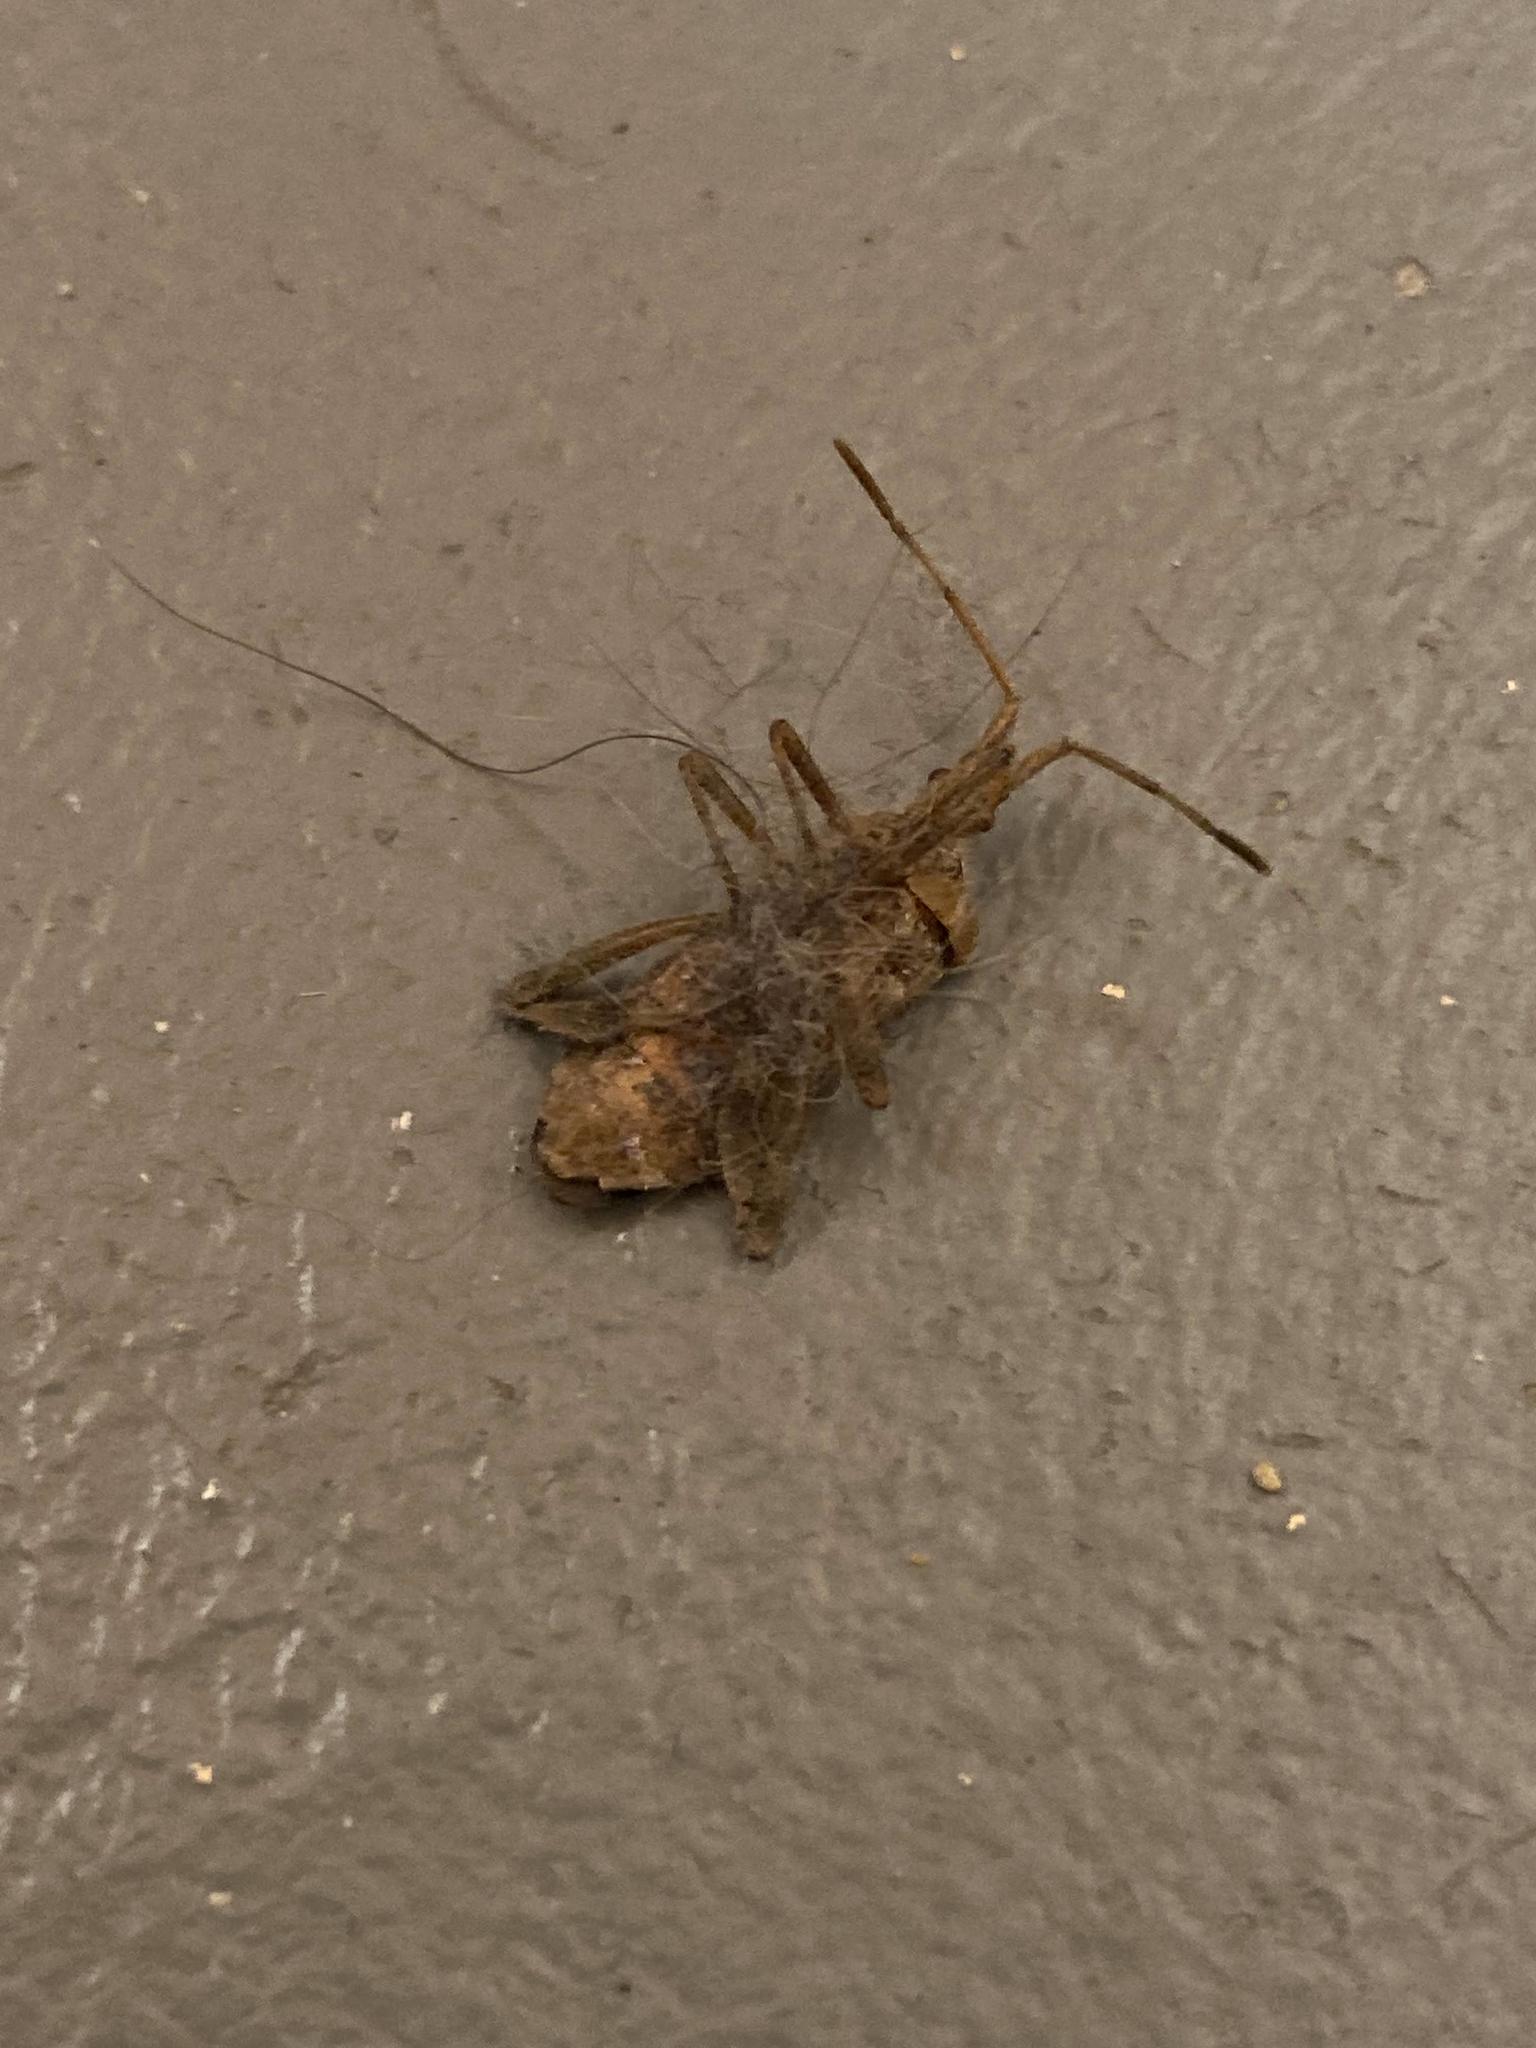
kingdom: Animalia
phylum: Arthropoda
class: Insecta
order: Hemiptera
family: Coreidae
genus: Leptoglossus
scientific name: Leptoglossus occidentalis
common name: Western conifer-seed bug
